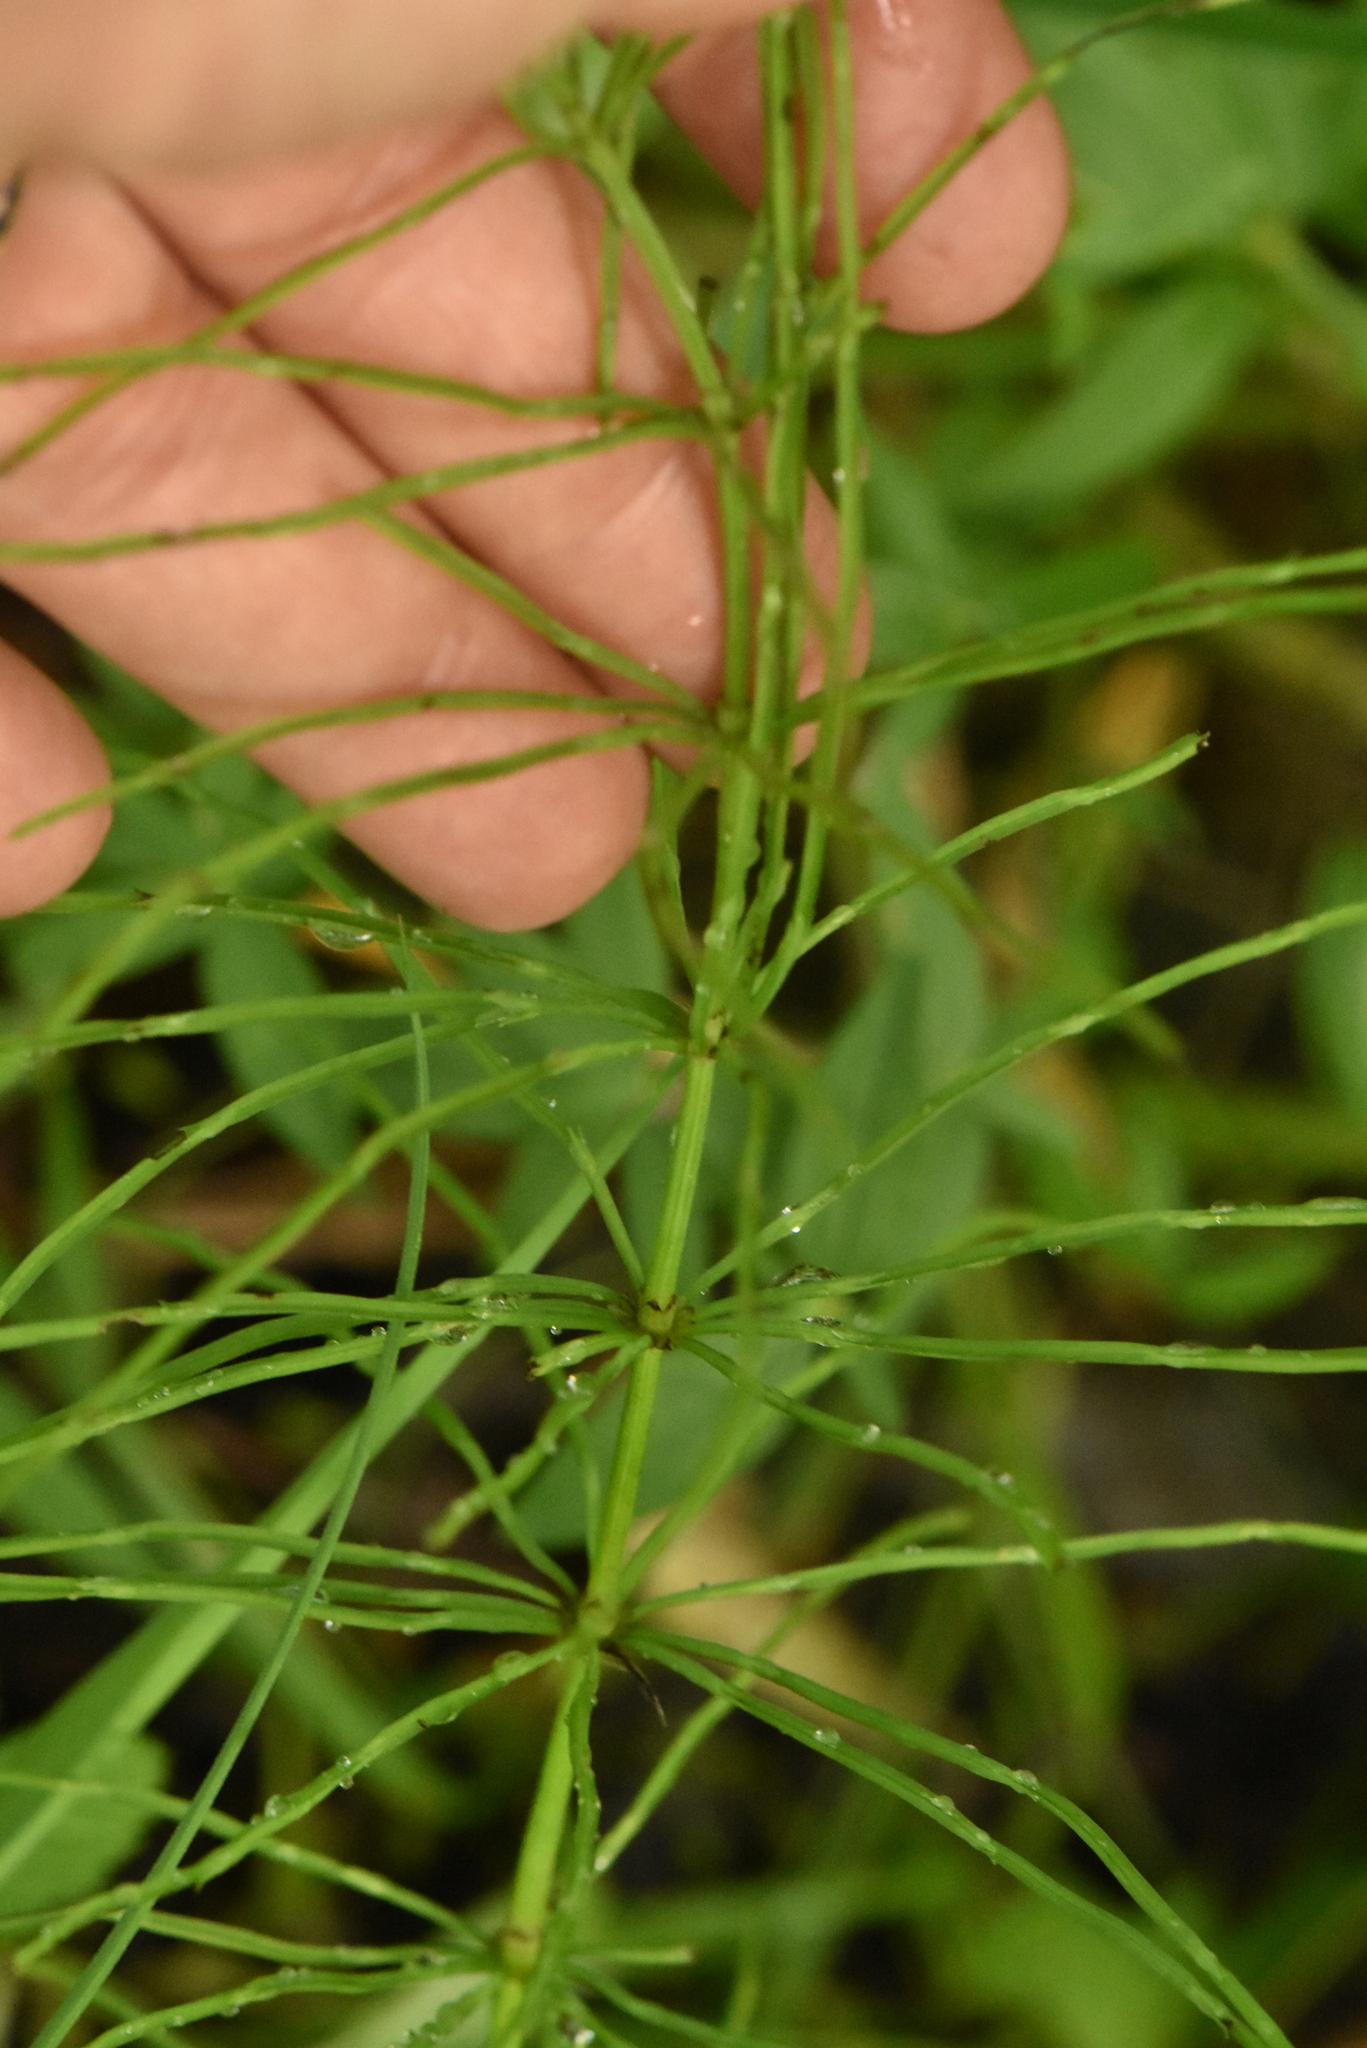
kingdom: Plantae
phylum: Tracheophyta
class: Polypodiopsida
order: Equisetales
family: Equisetaceae
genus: Equisetum
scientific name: Equisetum arvense
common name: Field horsetail
